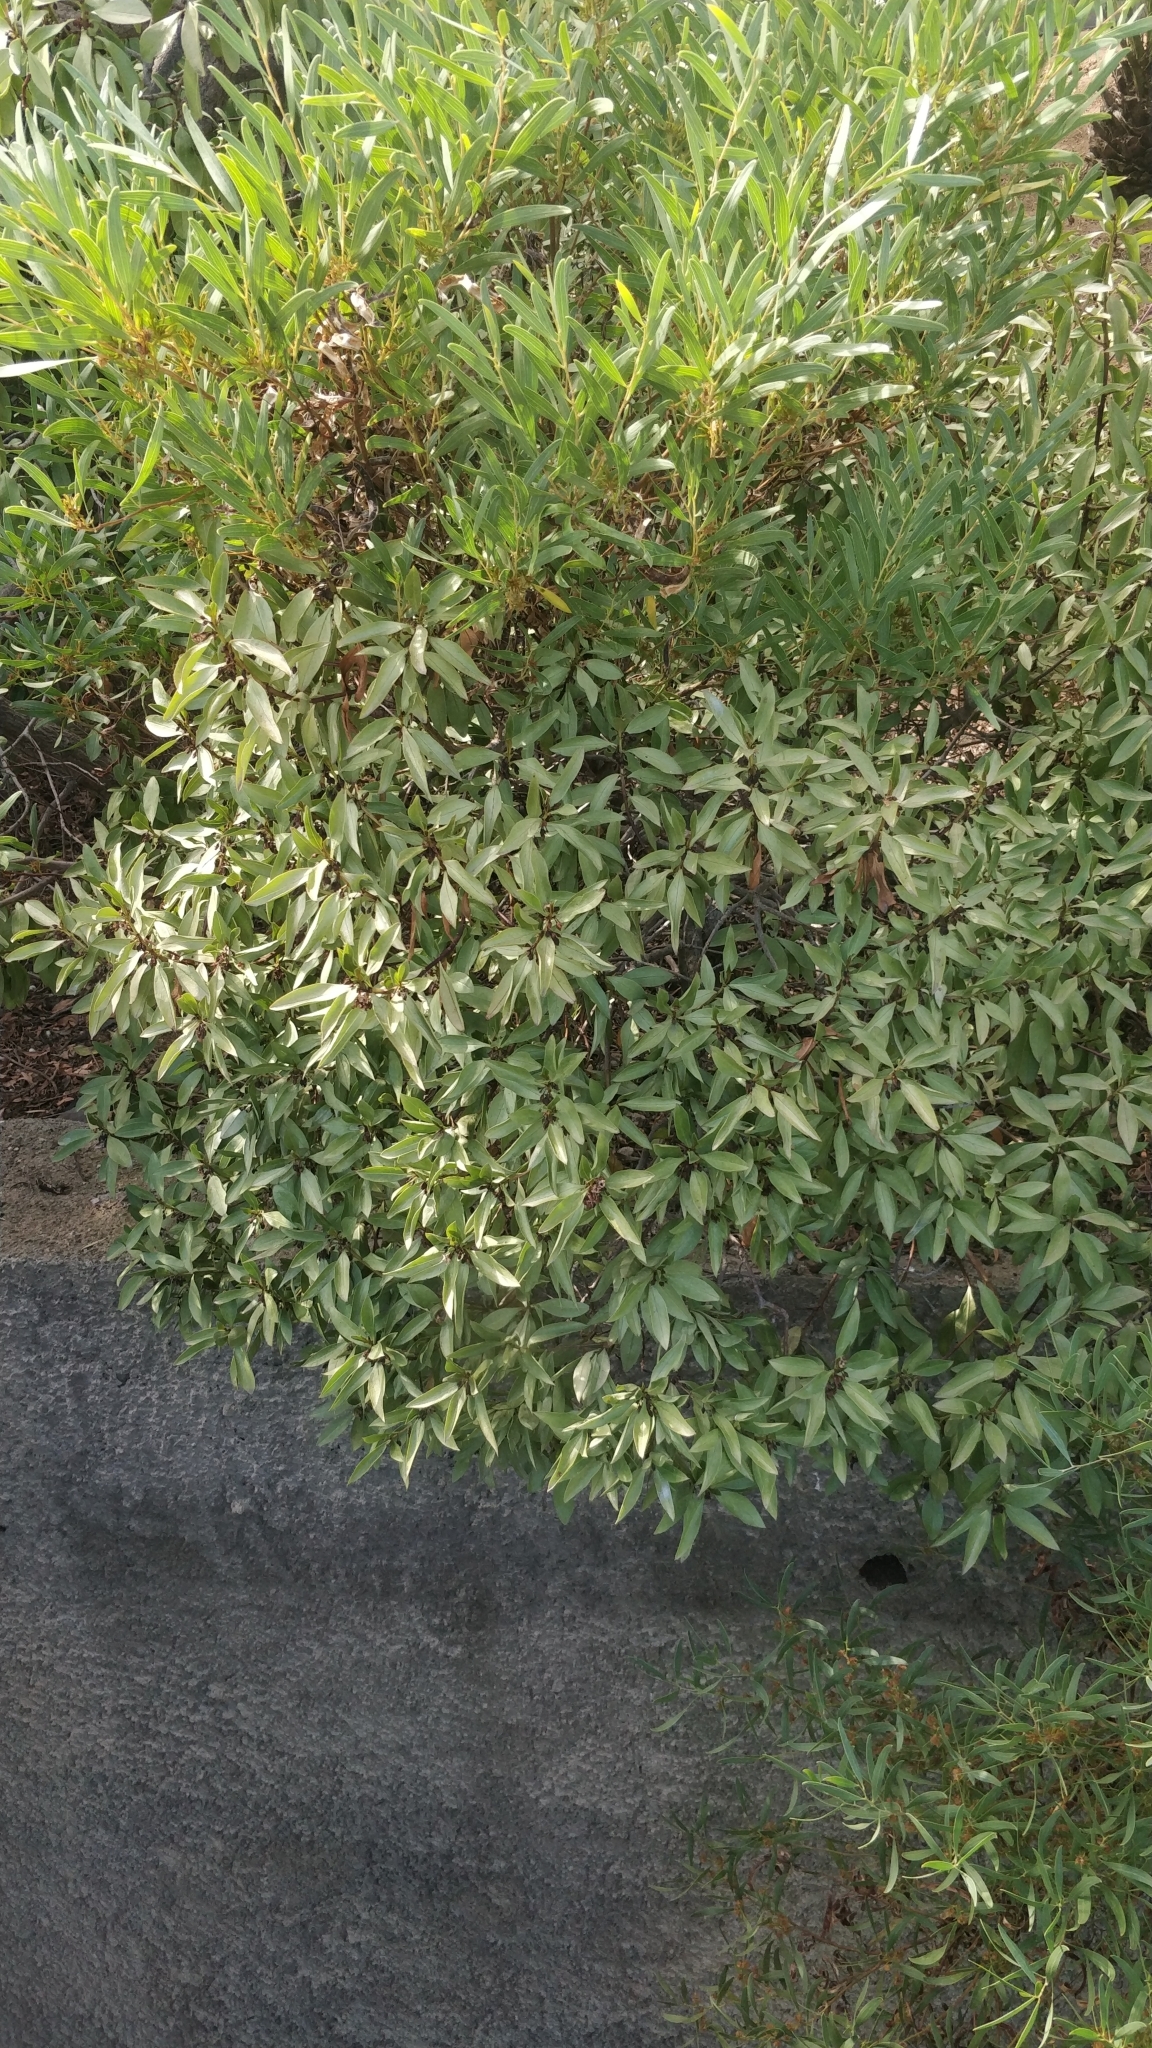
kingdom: Plantae
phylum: Tracheophyta
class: Magnoliopsida
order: Lamiales
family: Scrophulariaceae
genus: Myoporum
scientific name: Myoporum laetum
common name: Ngaio tree
